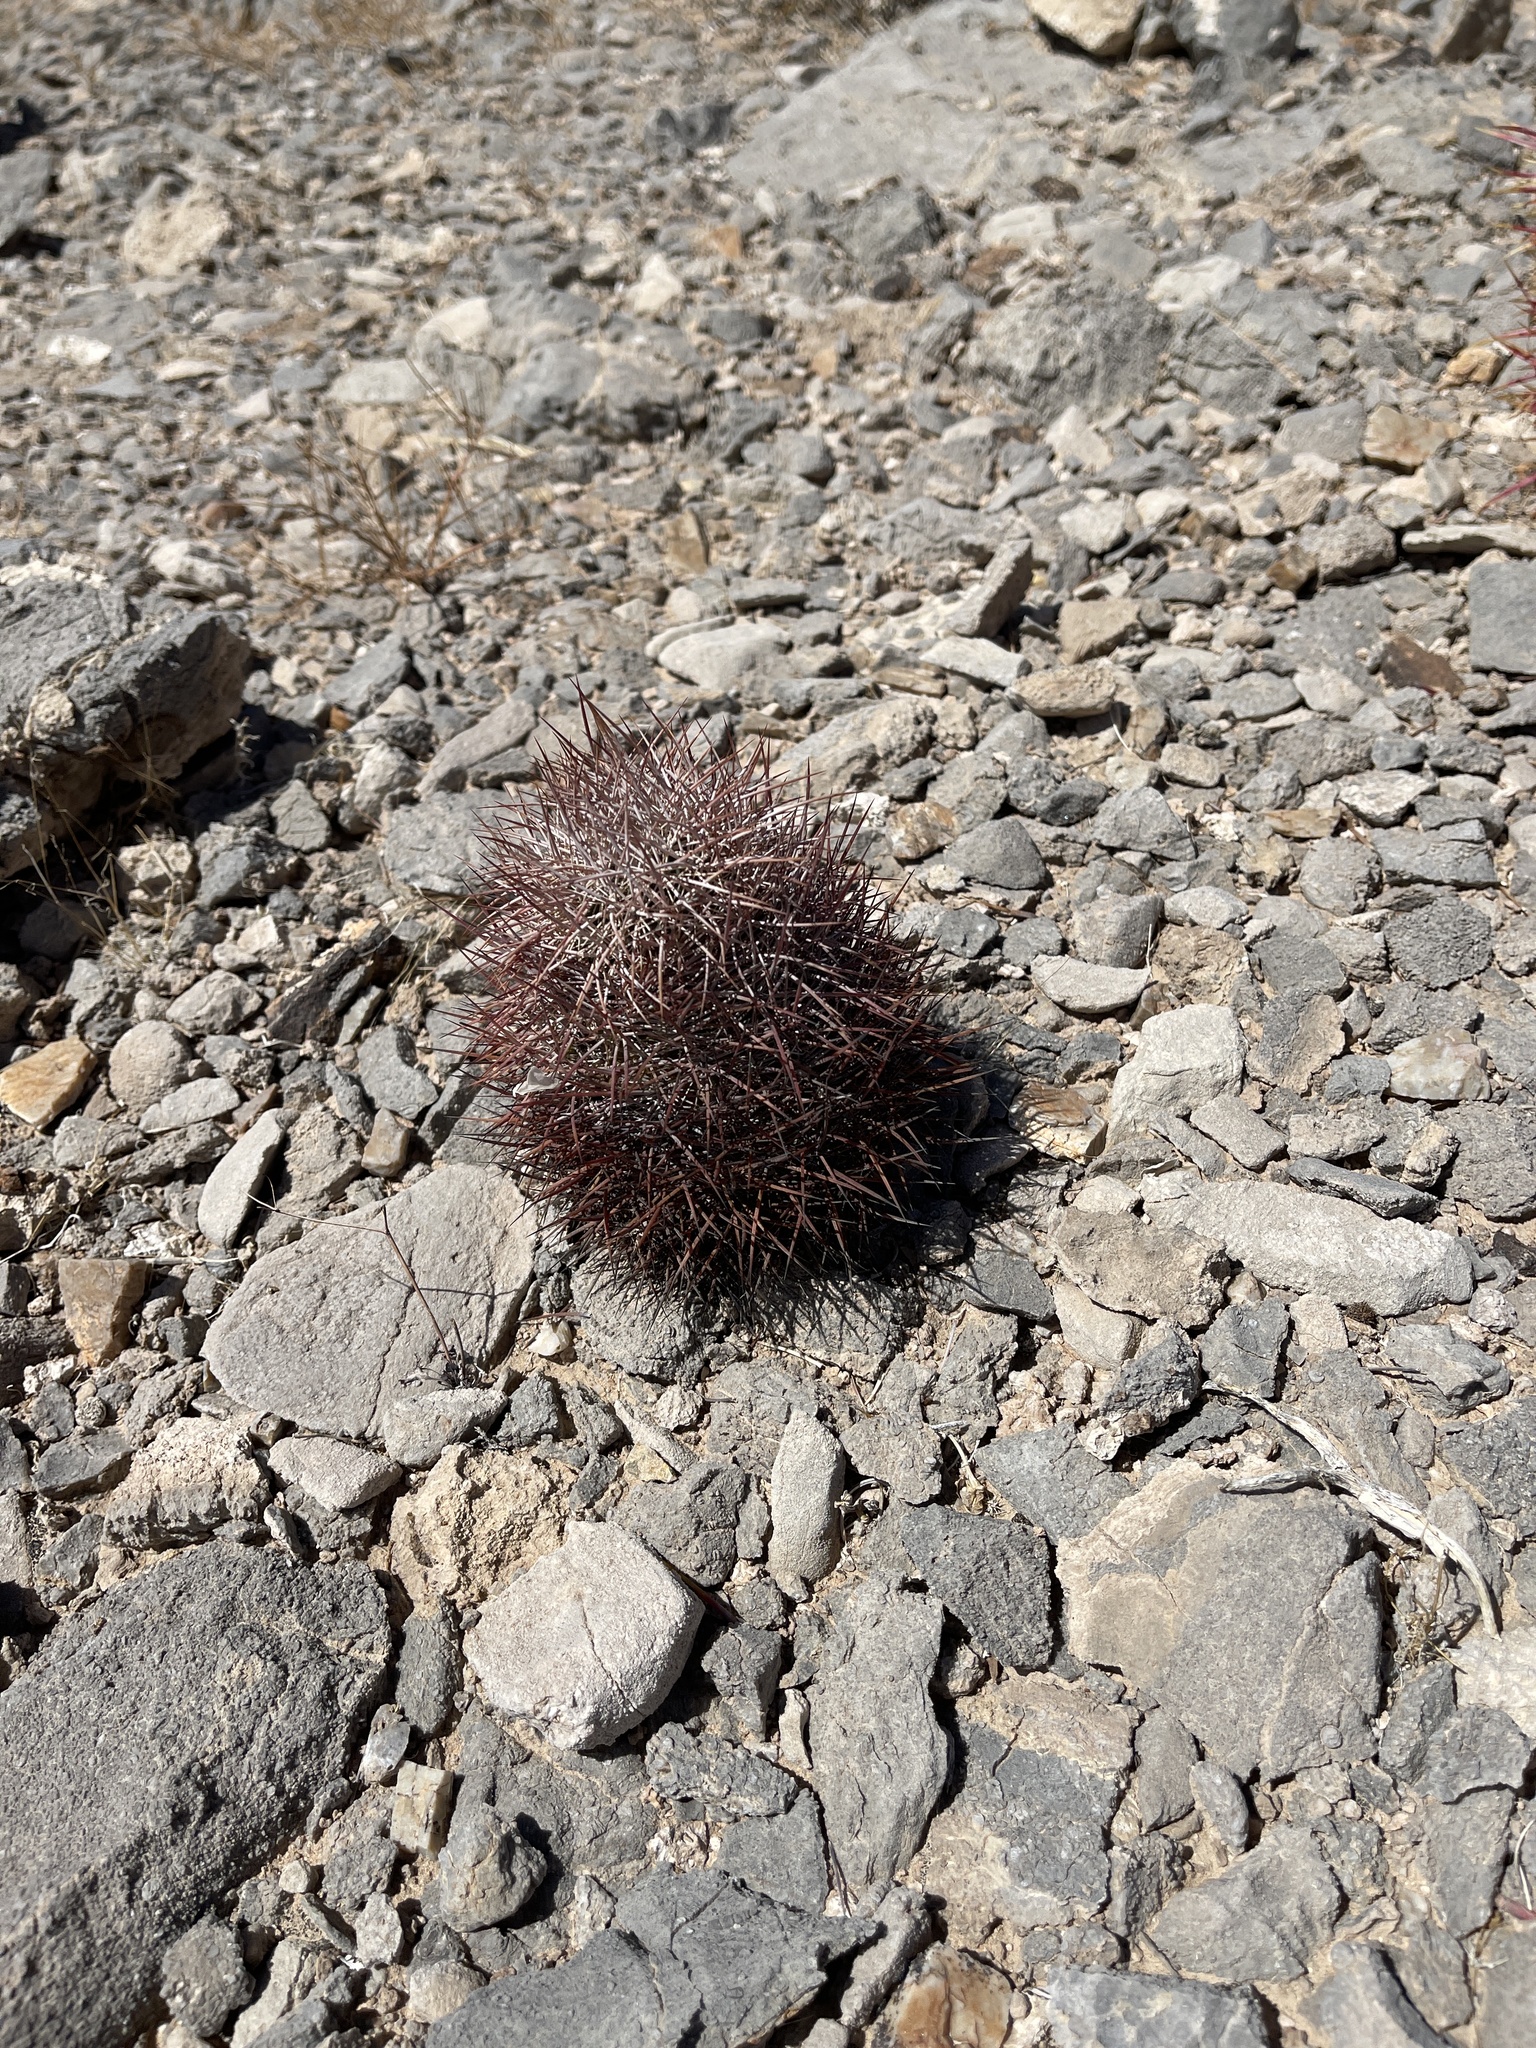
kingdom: Plantae
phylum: Tracheophyta
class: Magnoliopsida
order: Caryophyllales
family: Cactaceae
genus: Sclerocactus
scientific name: Sclerocactus johnsonii
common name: Eight-spine fishhook cactus
